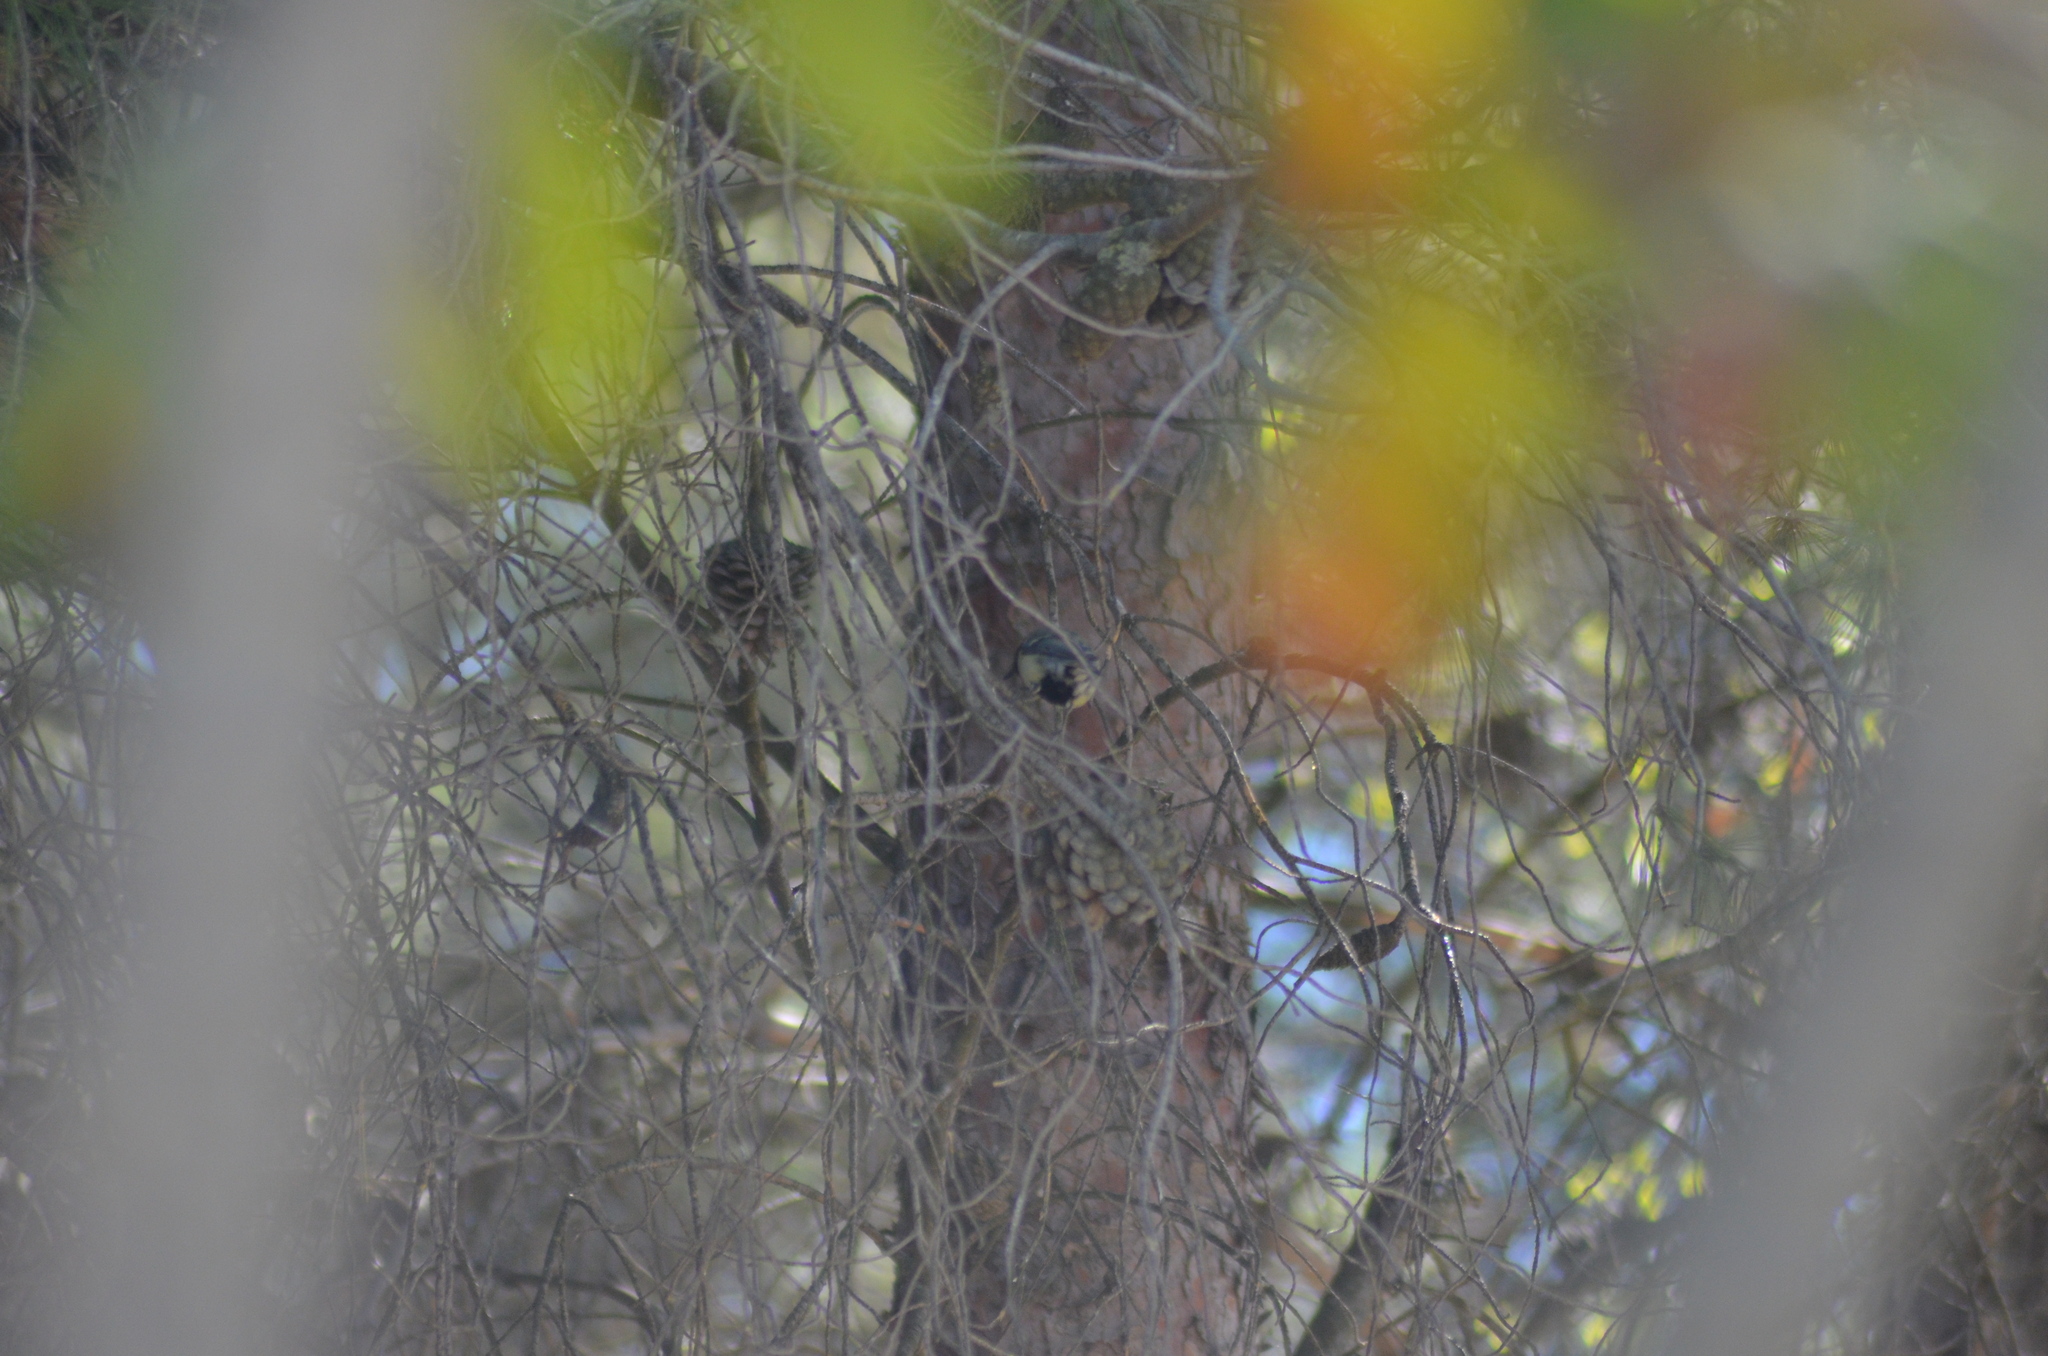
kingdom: Animalia
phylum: Chordata
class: Aves
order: Passeriformes
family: Paridae
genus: Parus
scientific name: Parus major
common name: Great tit
